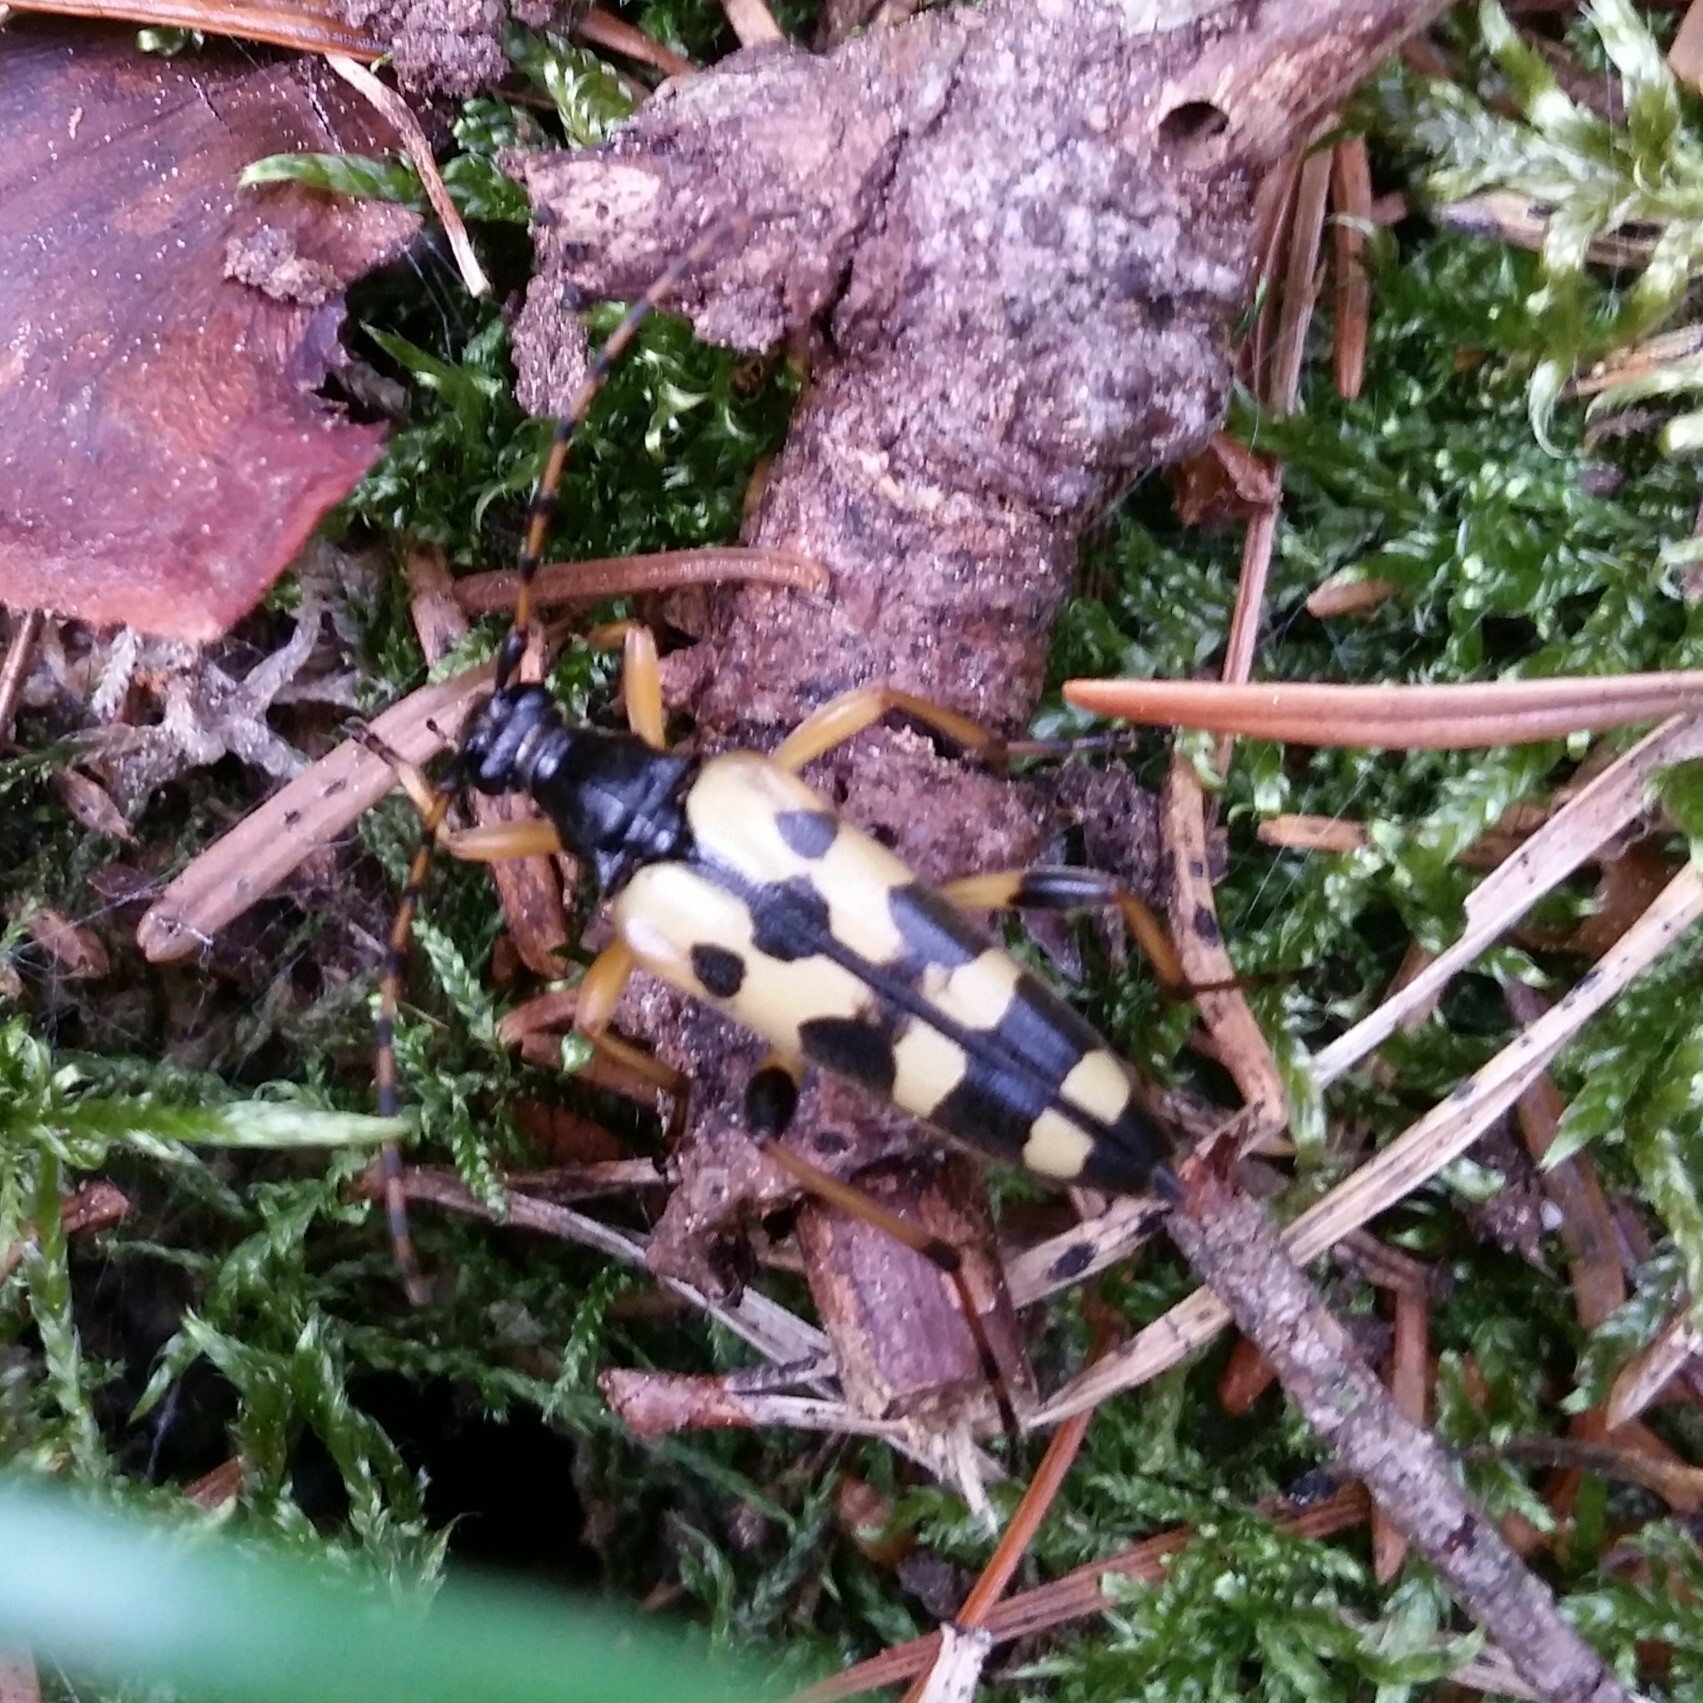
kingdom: Animalia
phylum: Arthropoda
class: Insecta
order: Coleoptera
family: Cerambycidae
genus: Rutpela
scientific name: Rutpela maculata
